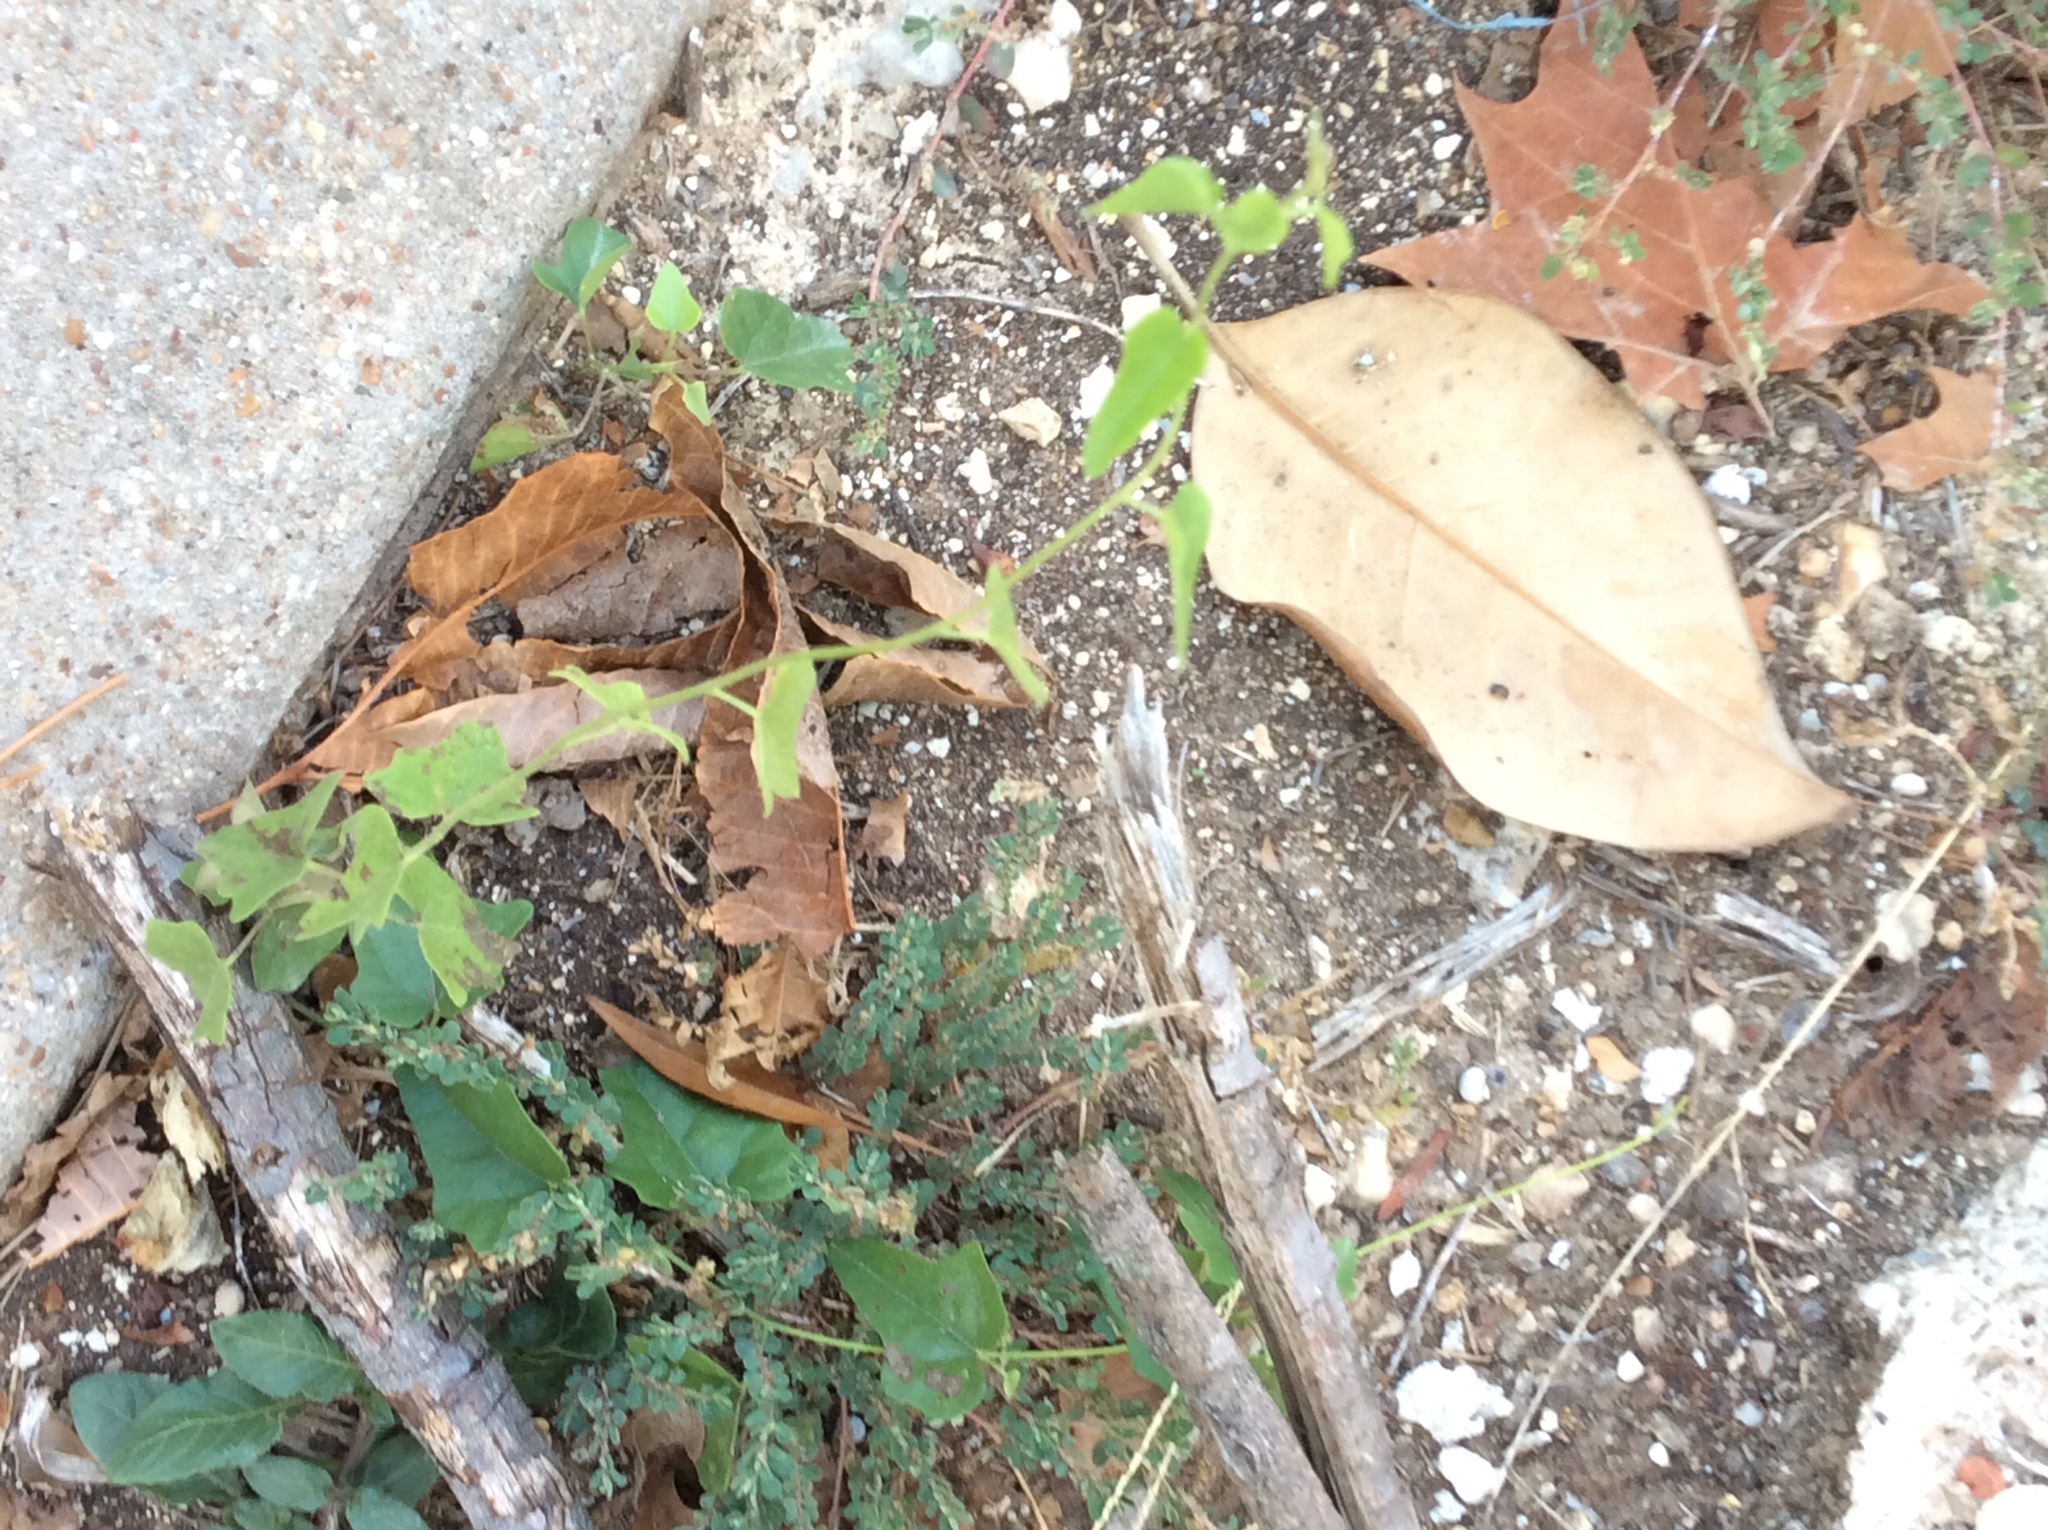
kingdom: Plantae
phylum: Tracheophyta
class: Magnoliopsida
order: Ranunculales
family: Menispermaceae
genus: Cocculus
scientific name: Cocculus carolinus
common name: Carolina moonseed
